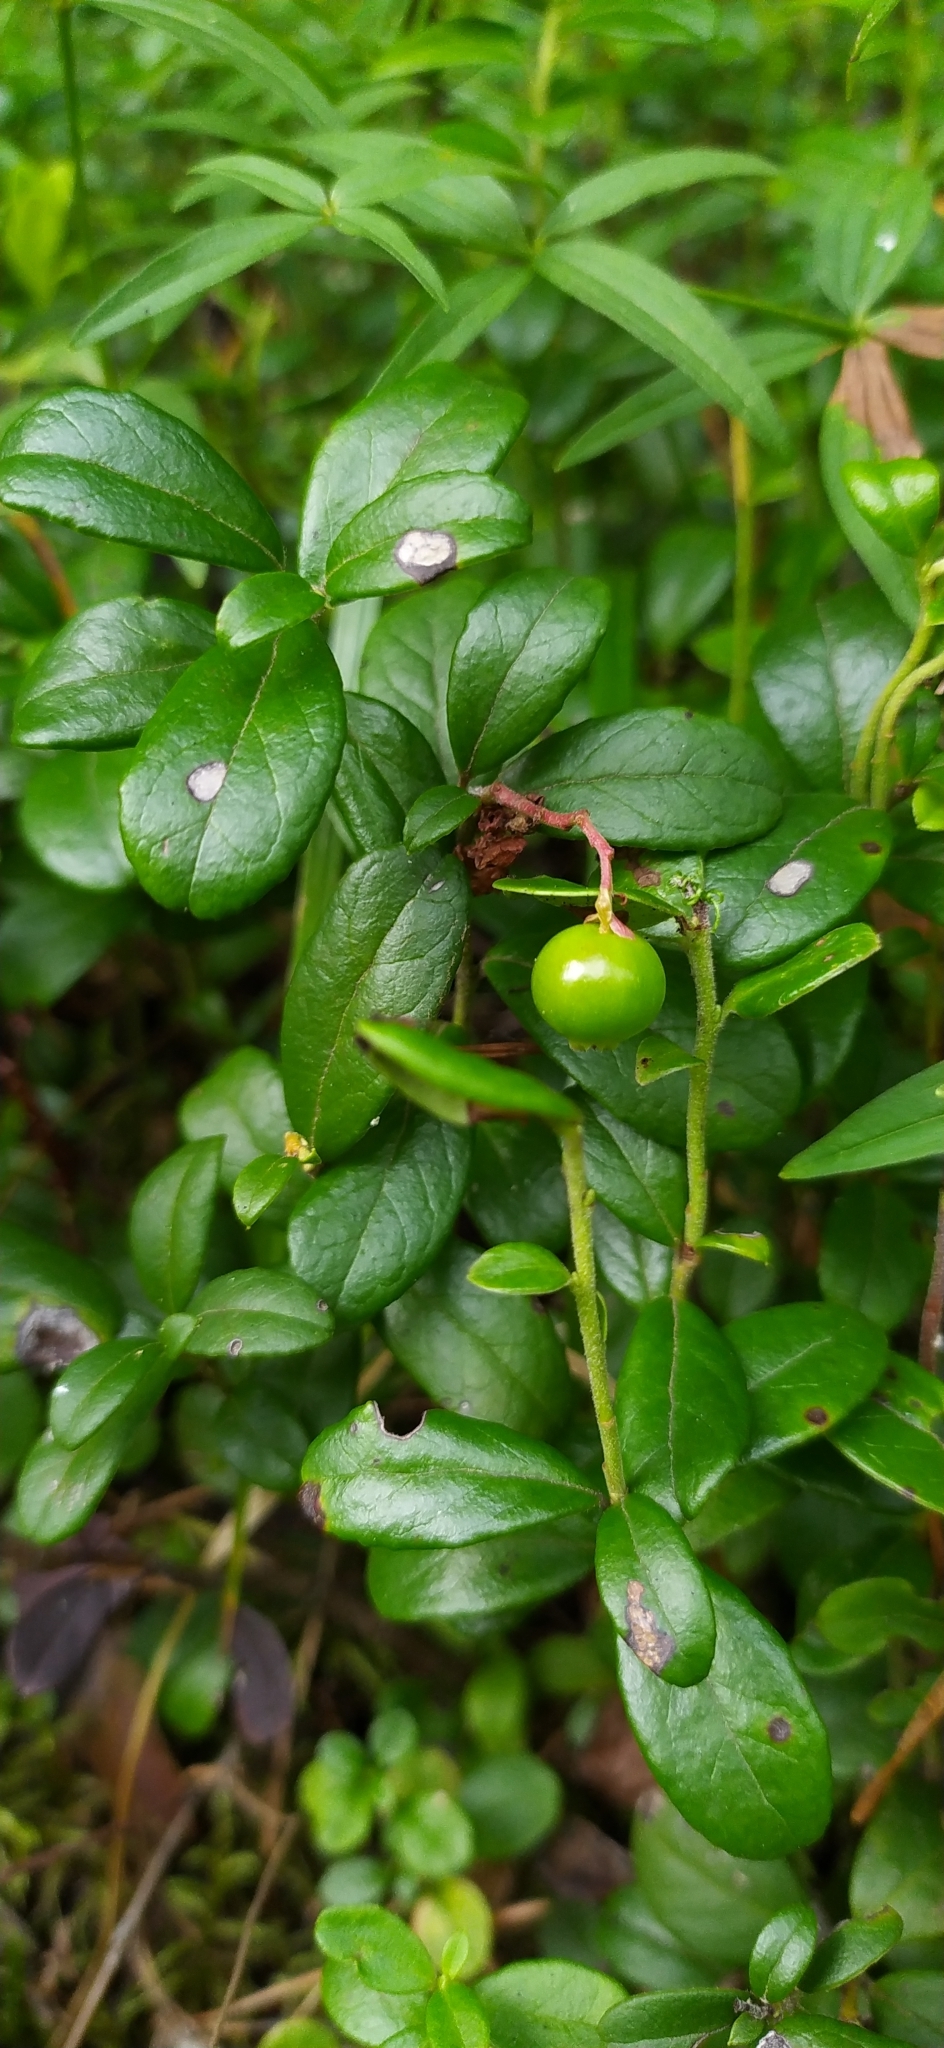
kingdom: Plantae
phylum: Tracheophyta
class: Magnoliopsida
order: Ericales
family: Ericaceae
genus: Vaccinium
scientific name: Vaccinium vitis-idaea
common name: Cowberry
